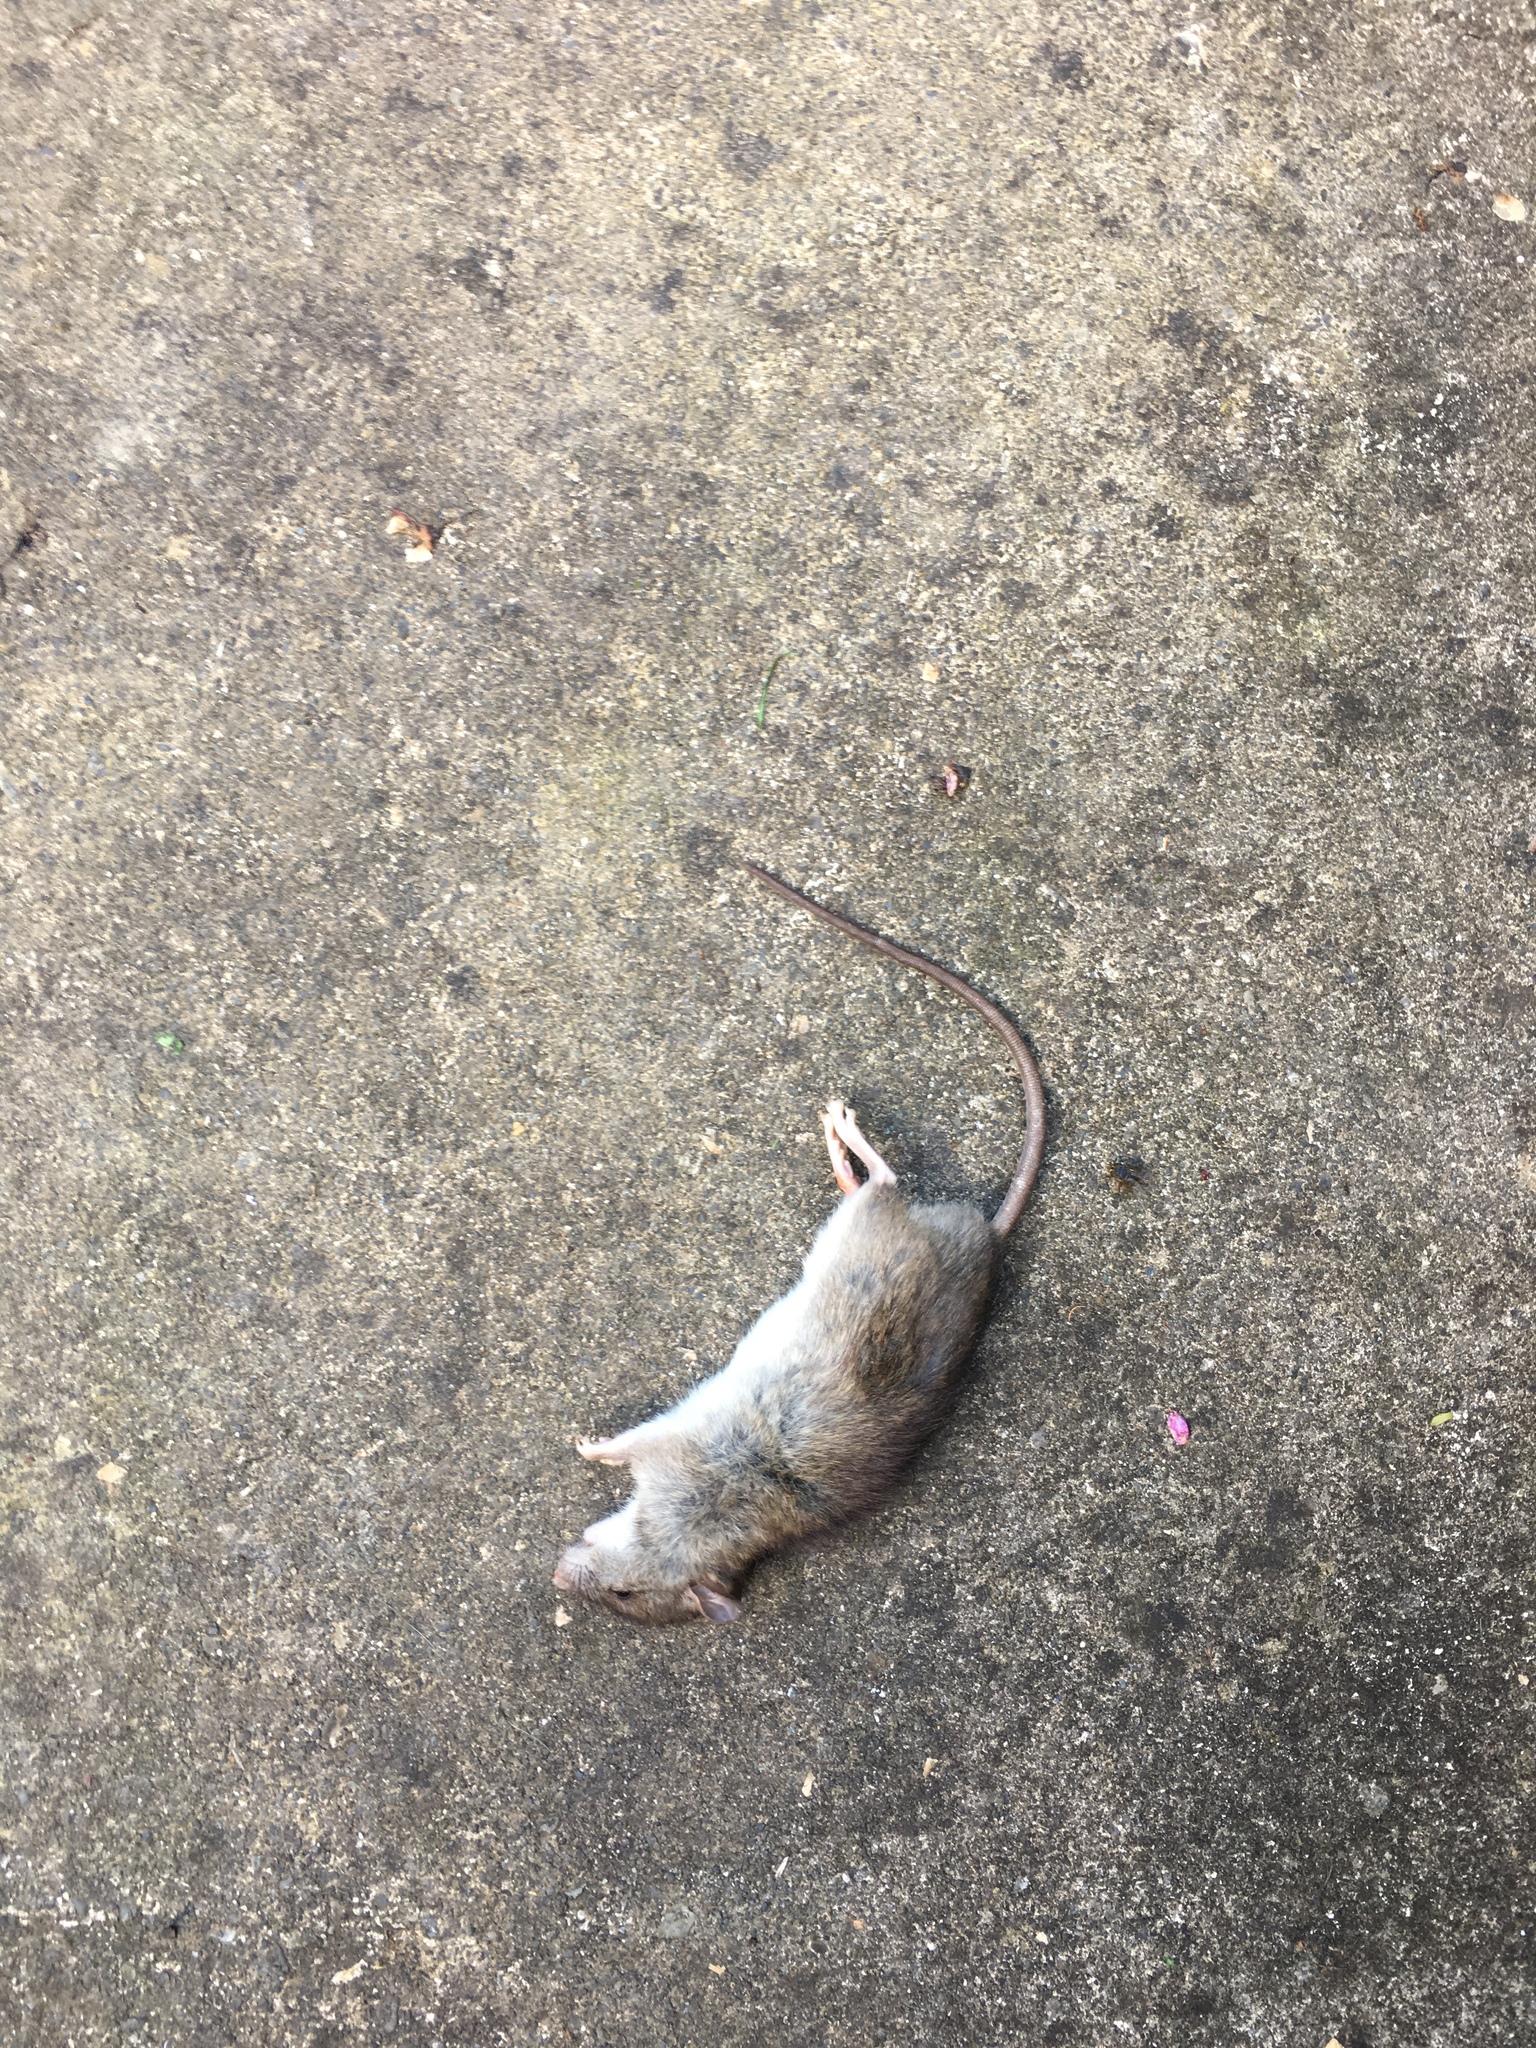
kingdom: Animalia
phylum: Chordata
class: Mammalia
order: Rodentia
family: Muridae
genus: Rattus
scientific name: Rattus norvegicus
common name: Brown rat
